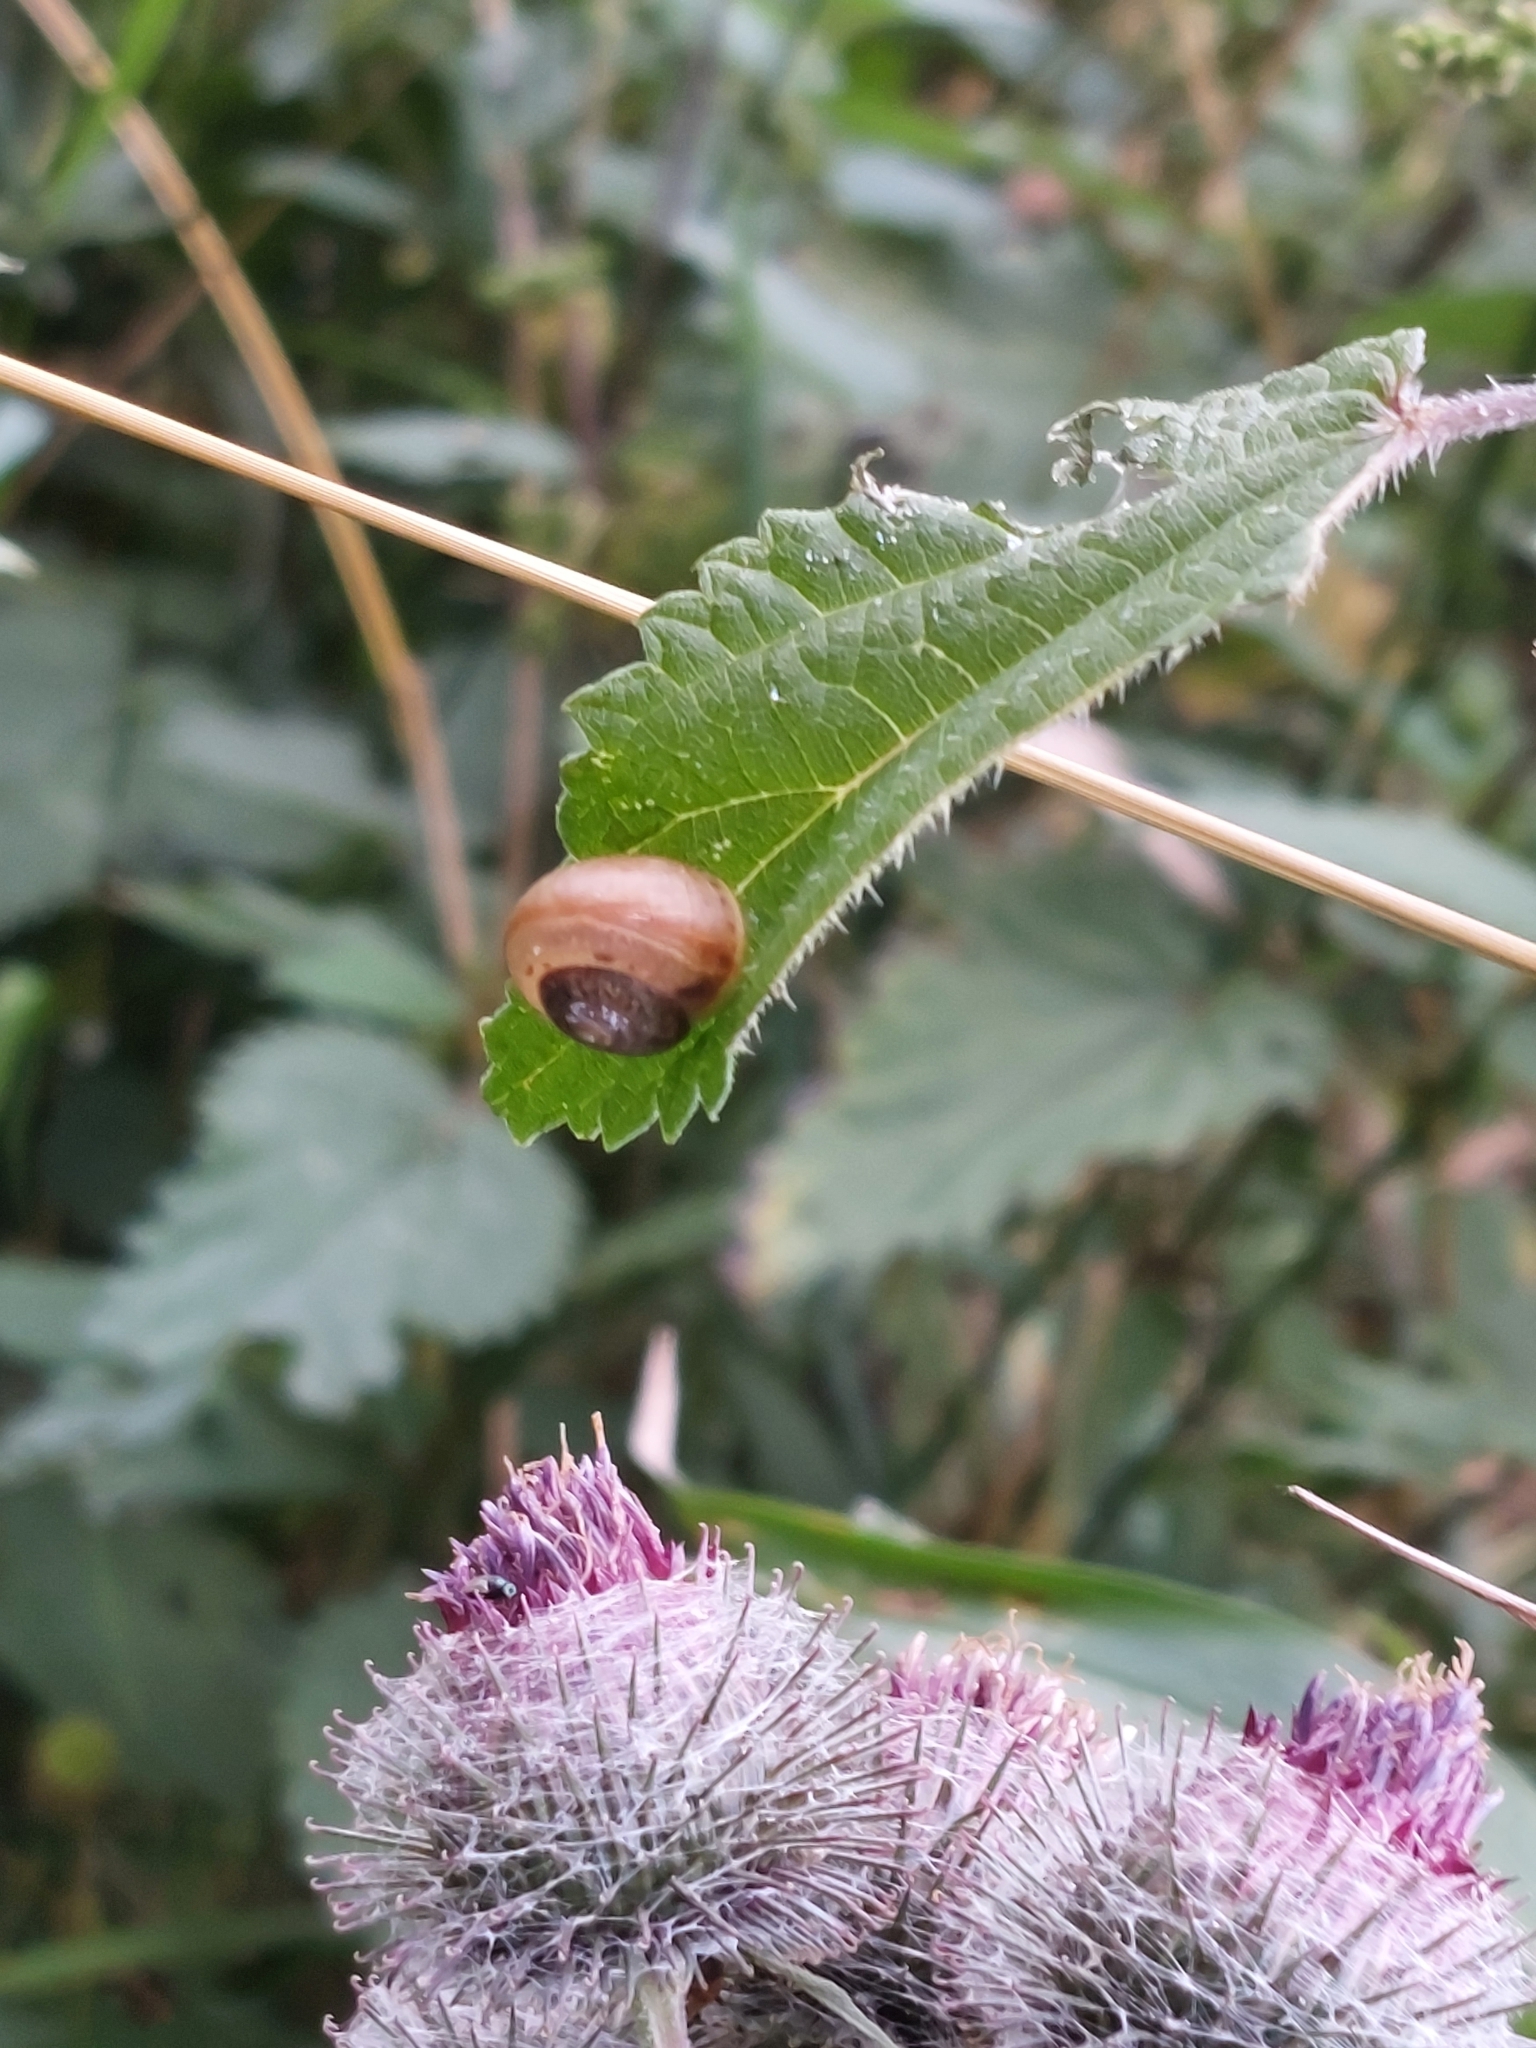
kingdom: Animalia
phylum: Mollusca
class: Gastropoda
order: Stylommatophora
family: Camaenidae
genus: Fruticicola
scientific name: Fruticicola fruticum
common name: Bush snail
